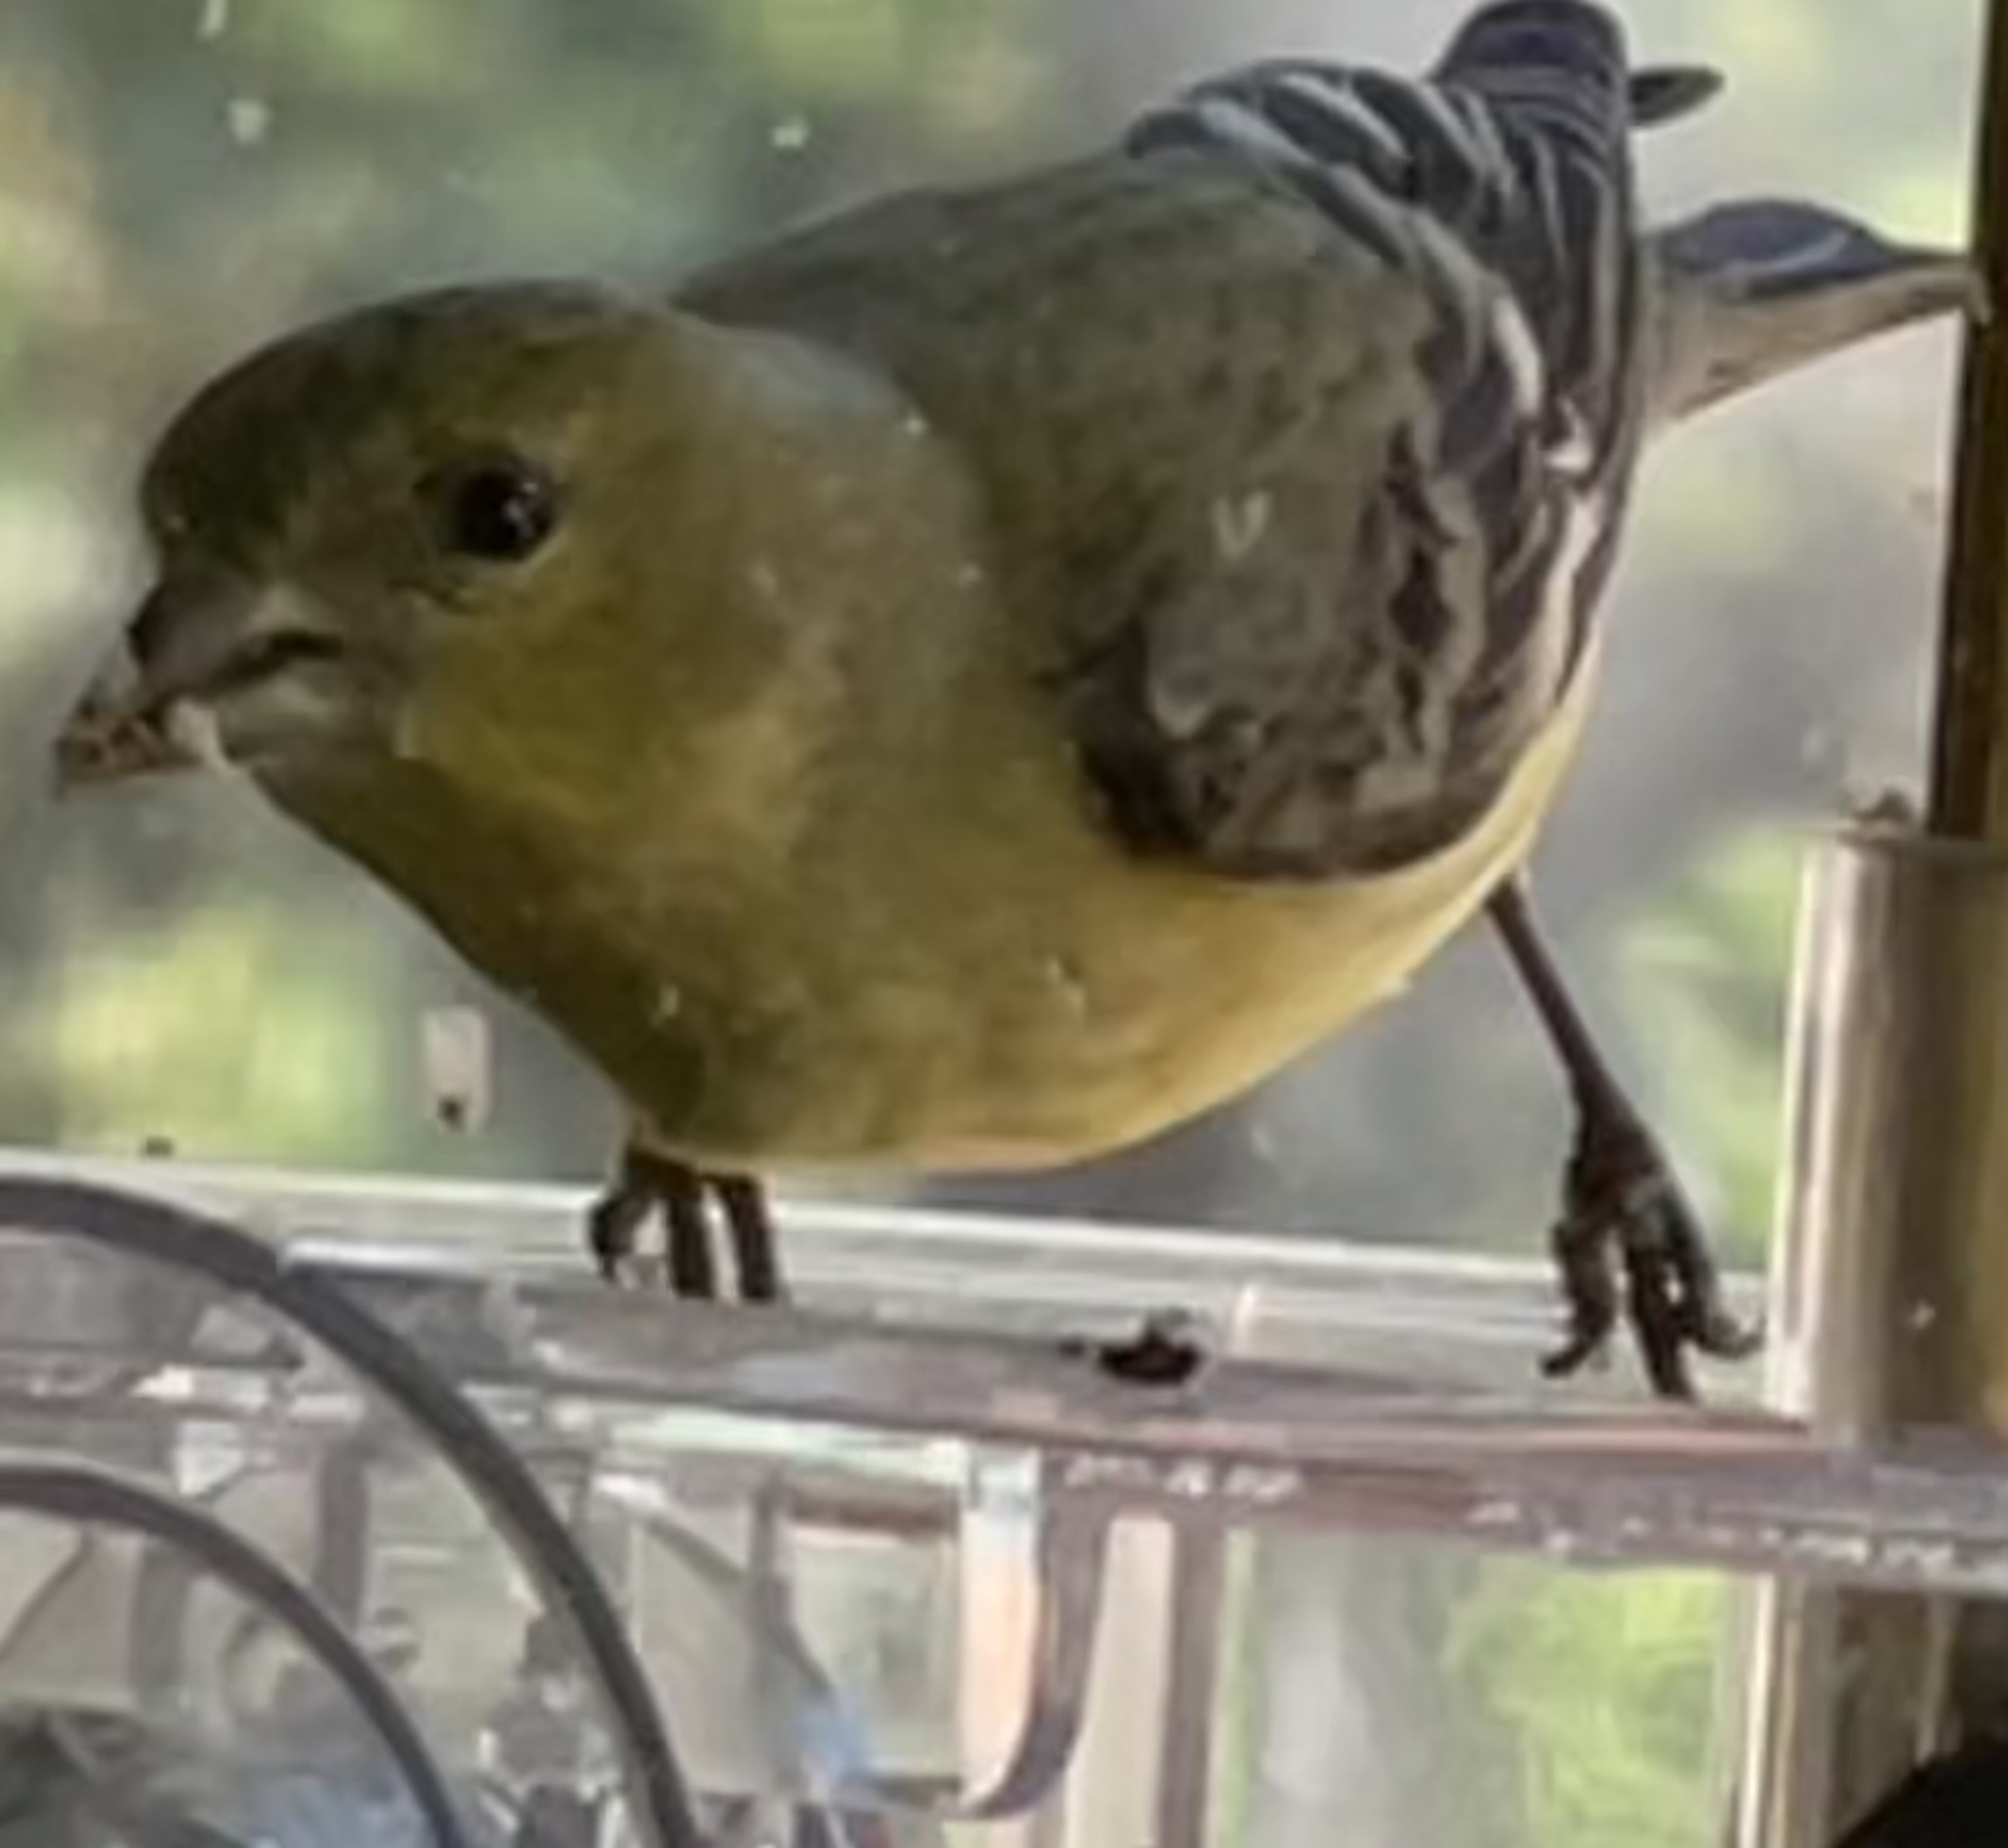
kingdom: Animalia
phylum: Chordata
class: Aves
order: Passeriformes
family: Fringillidae
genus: Spinus
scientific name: Spinus psaltria
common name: Lesser goldfinch
